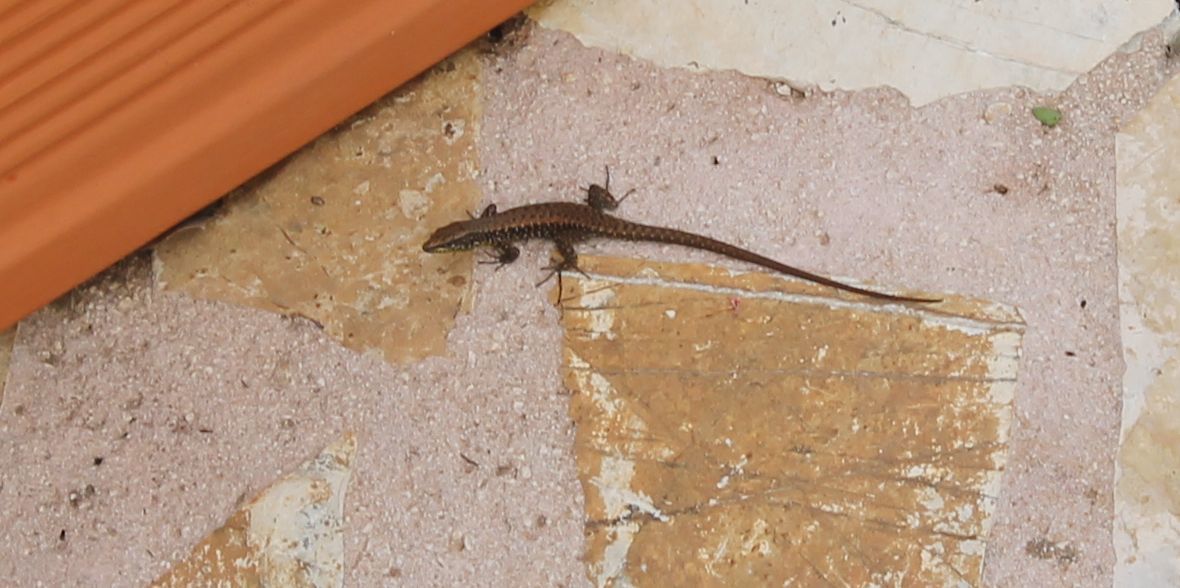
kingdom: Animalia
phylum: Chordata
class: Squamata
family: Lacertidae
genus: Algyroides
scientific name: Algyroides nigropunctatus
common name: Blue-throated keeled lizard
